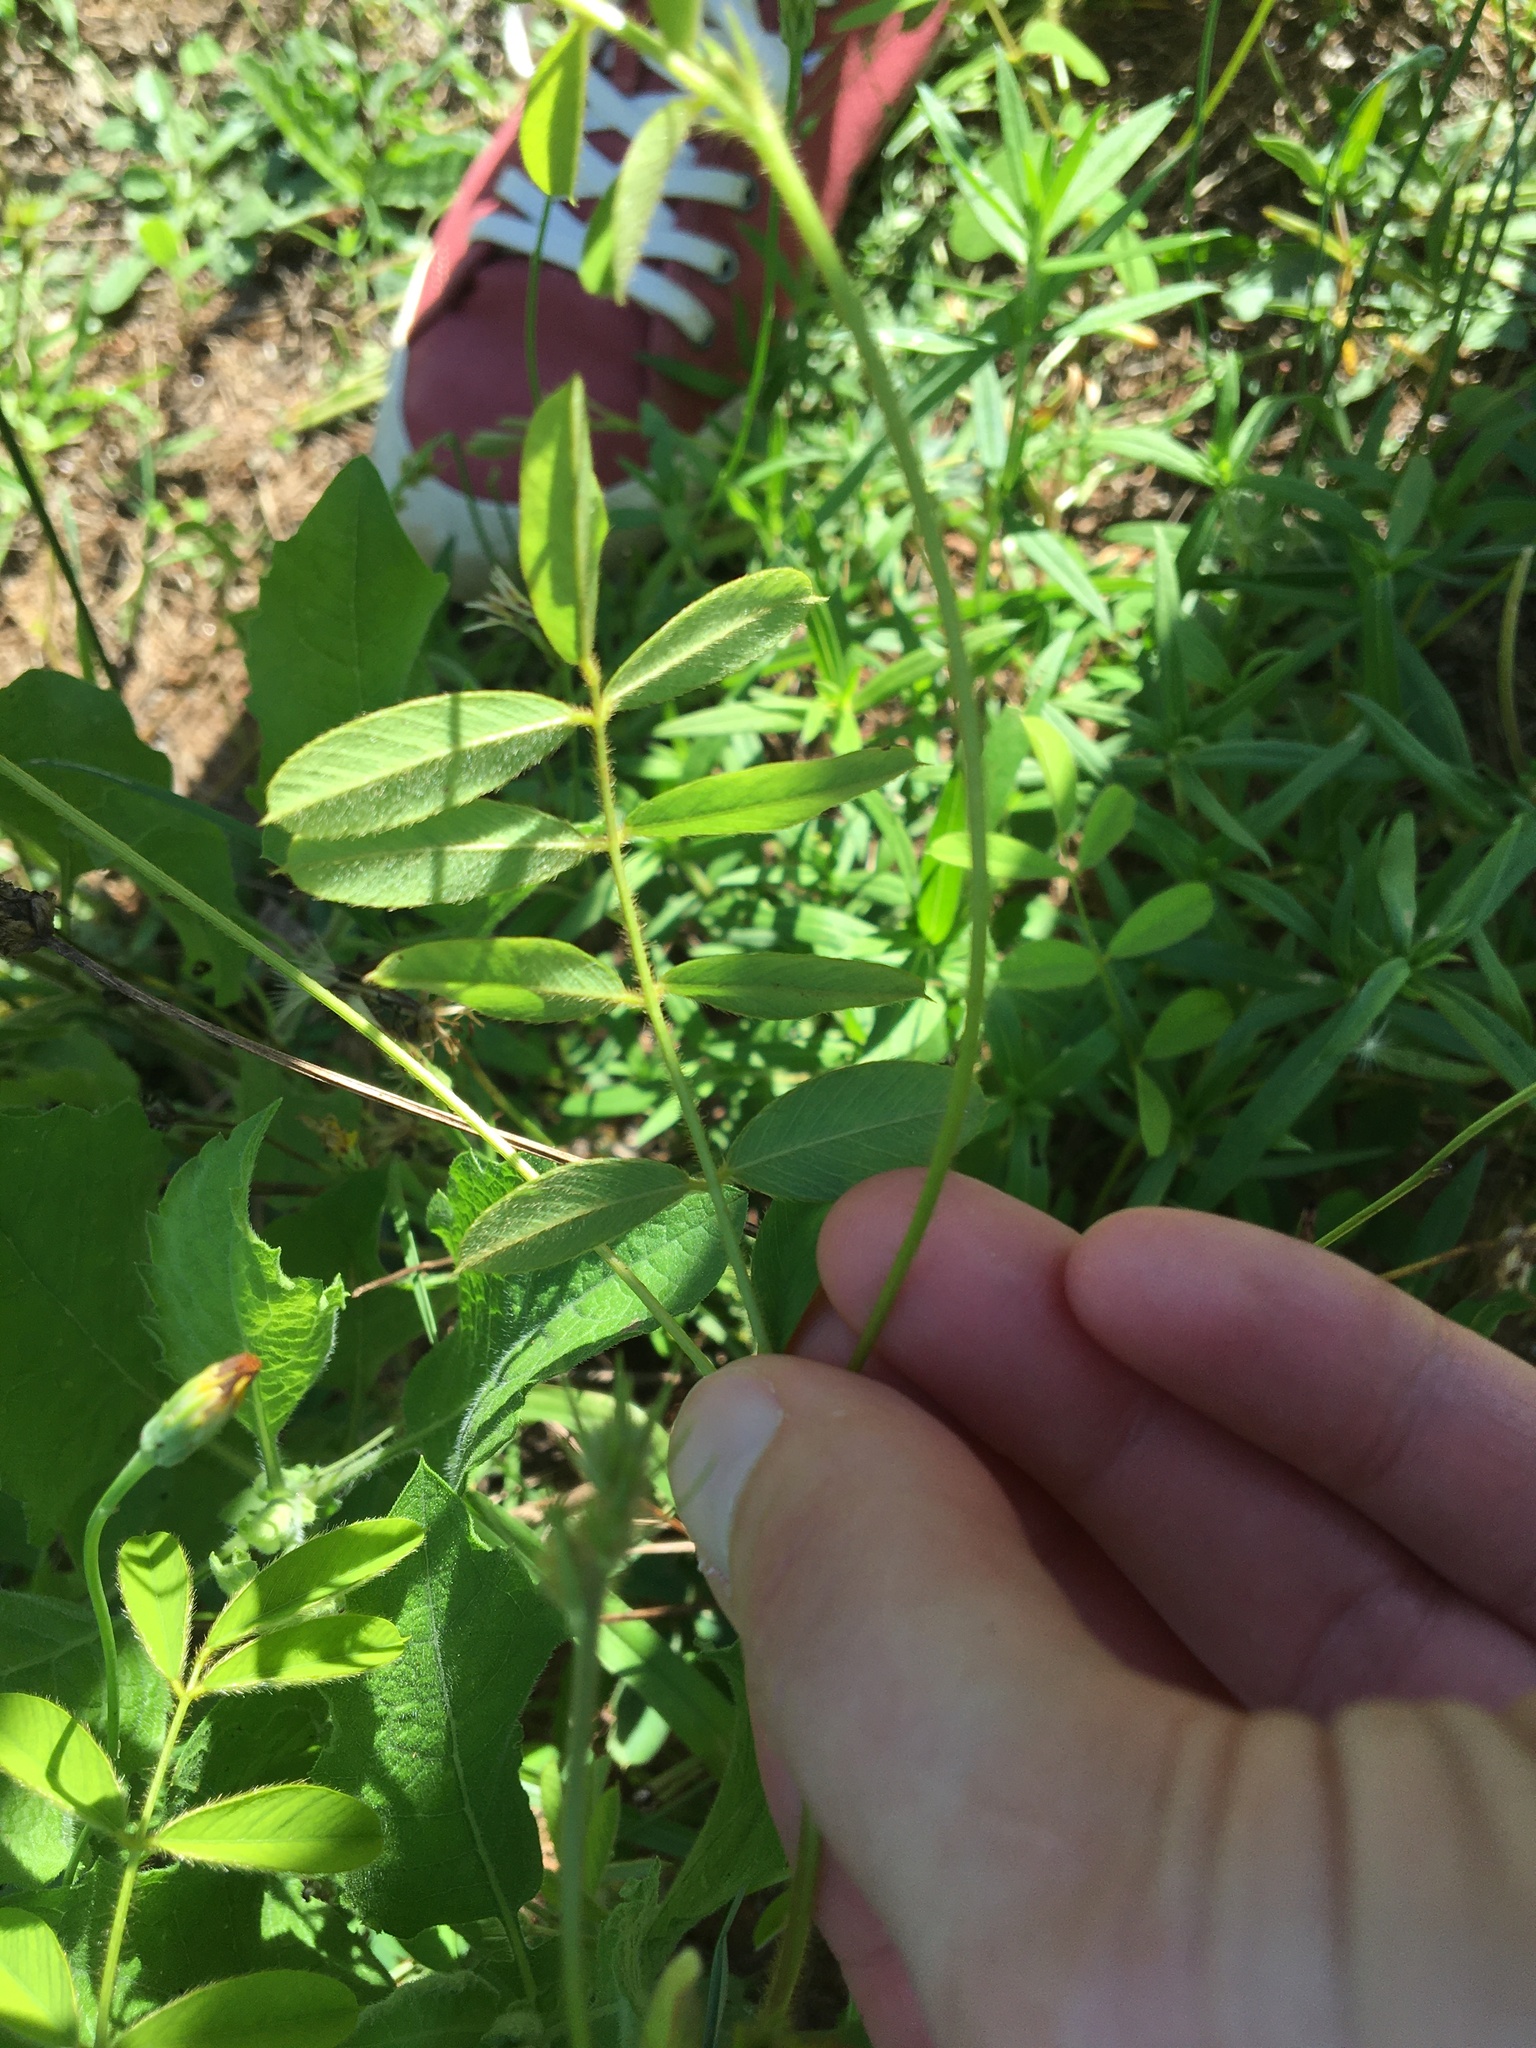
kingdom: Plantae
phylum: Tracheophyta
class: Magnoliopsida
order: Fabales
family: Fabaceae
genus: Tephrosia
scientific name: Tephrosia spicata
